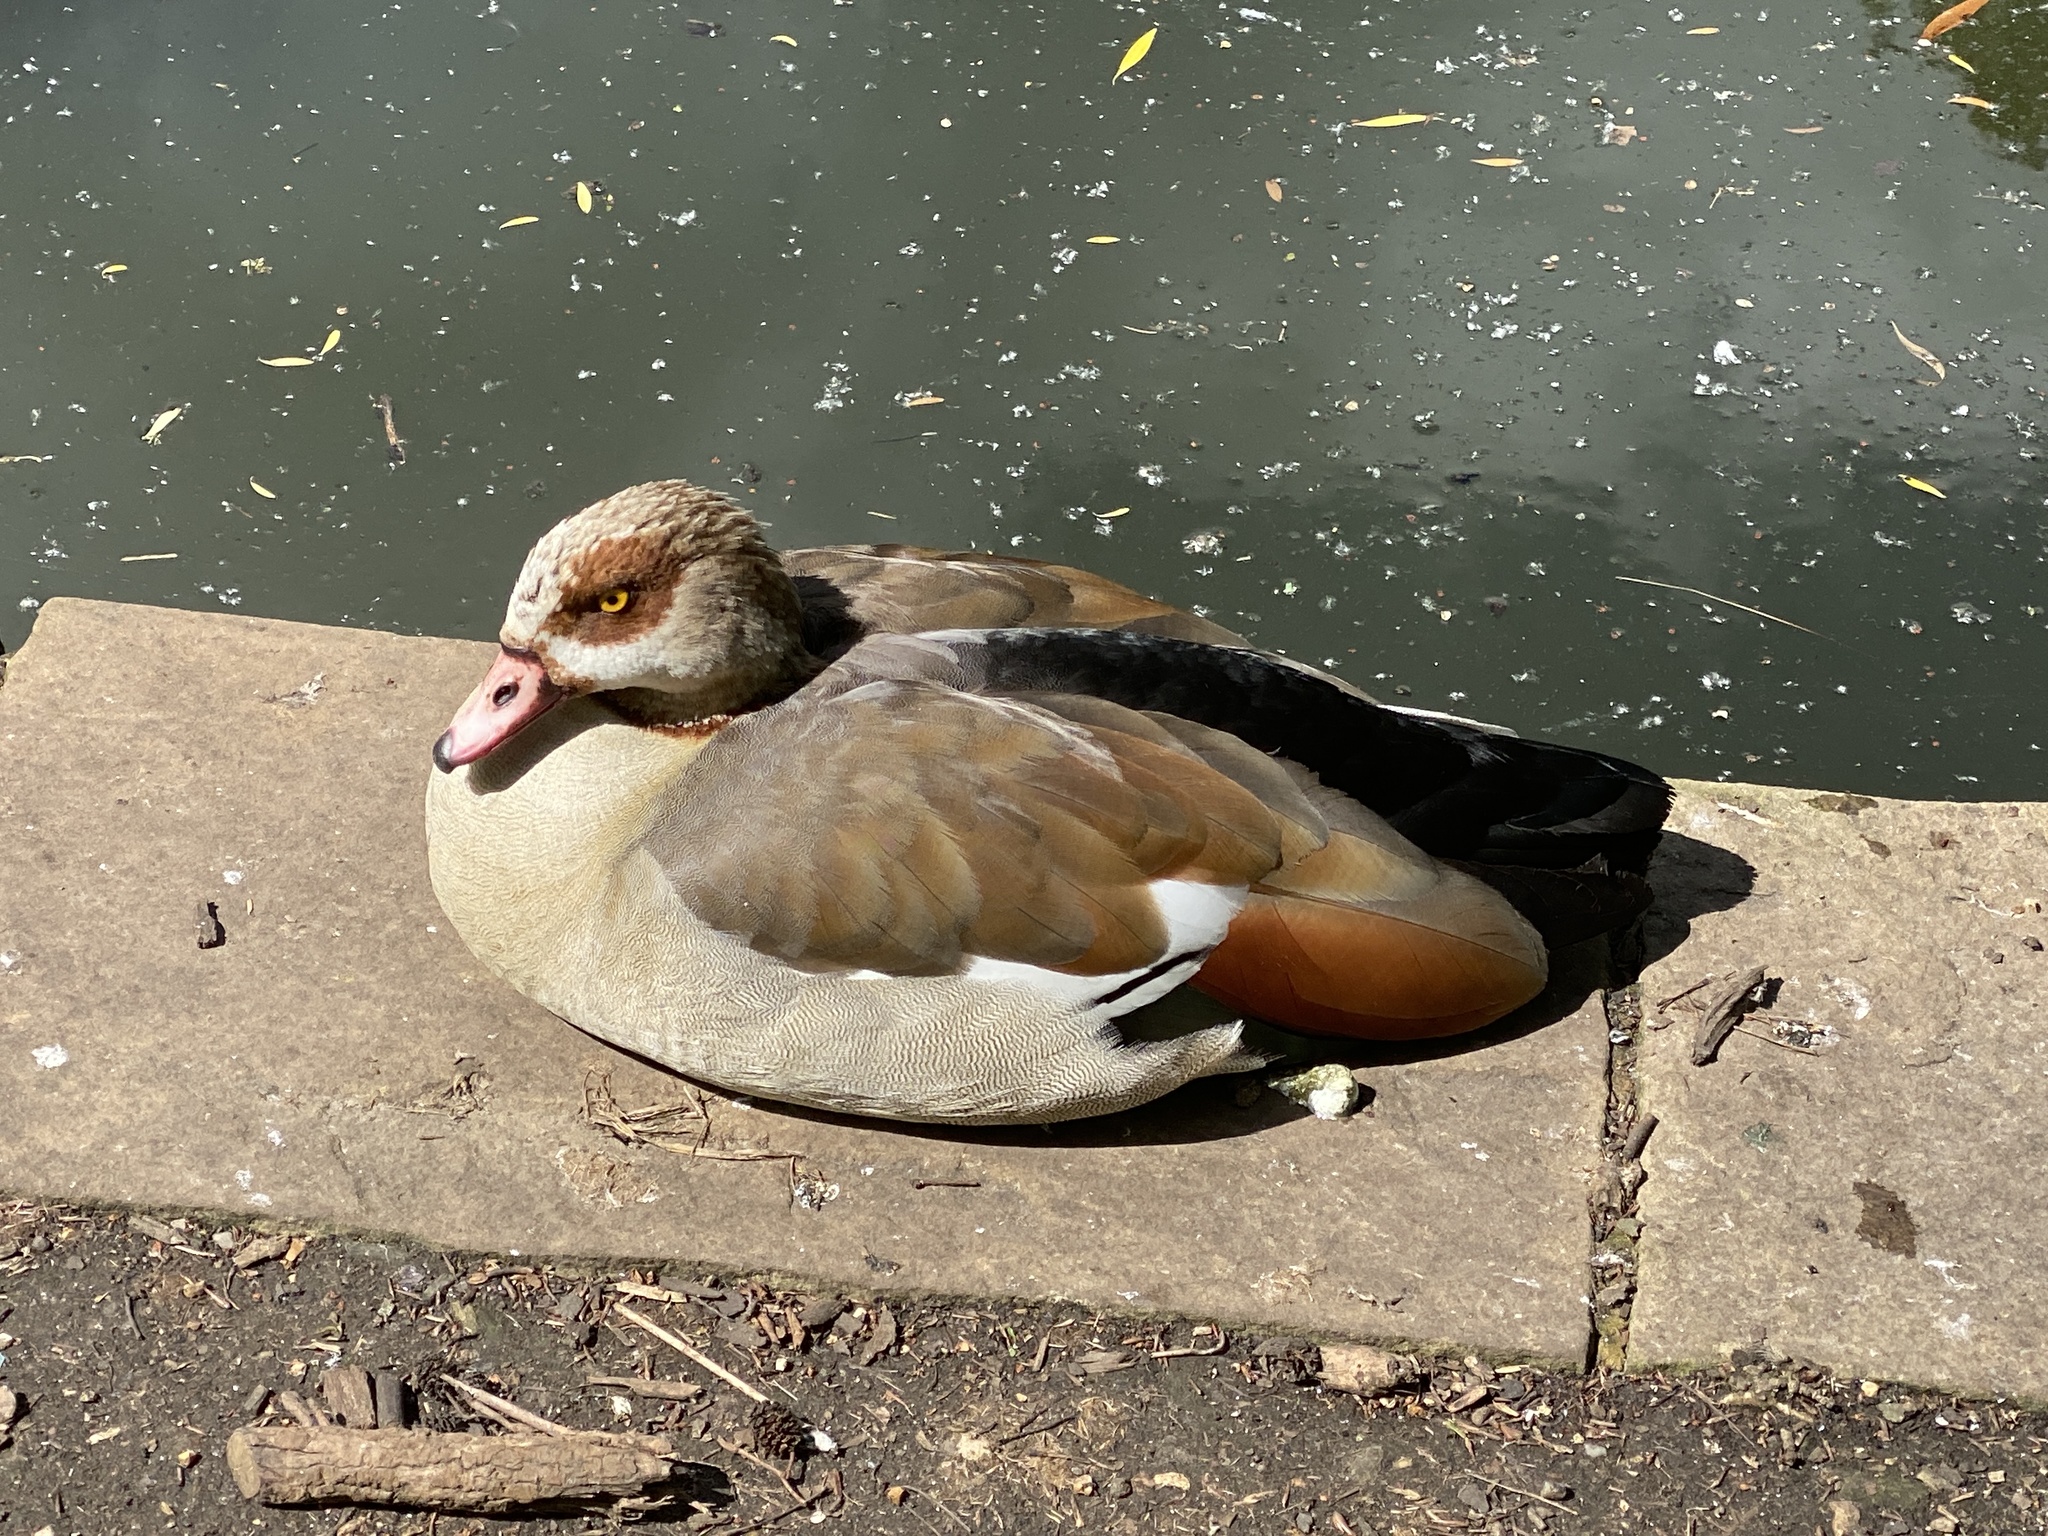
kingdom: Animalia
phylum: Chordata
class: Aves
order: Anseriformes
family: Anatidae
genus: Alopochen
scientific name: Alopochen aegyptiaca
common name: Egyptian goose
